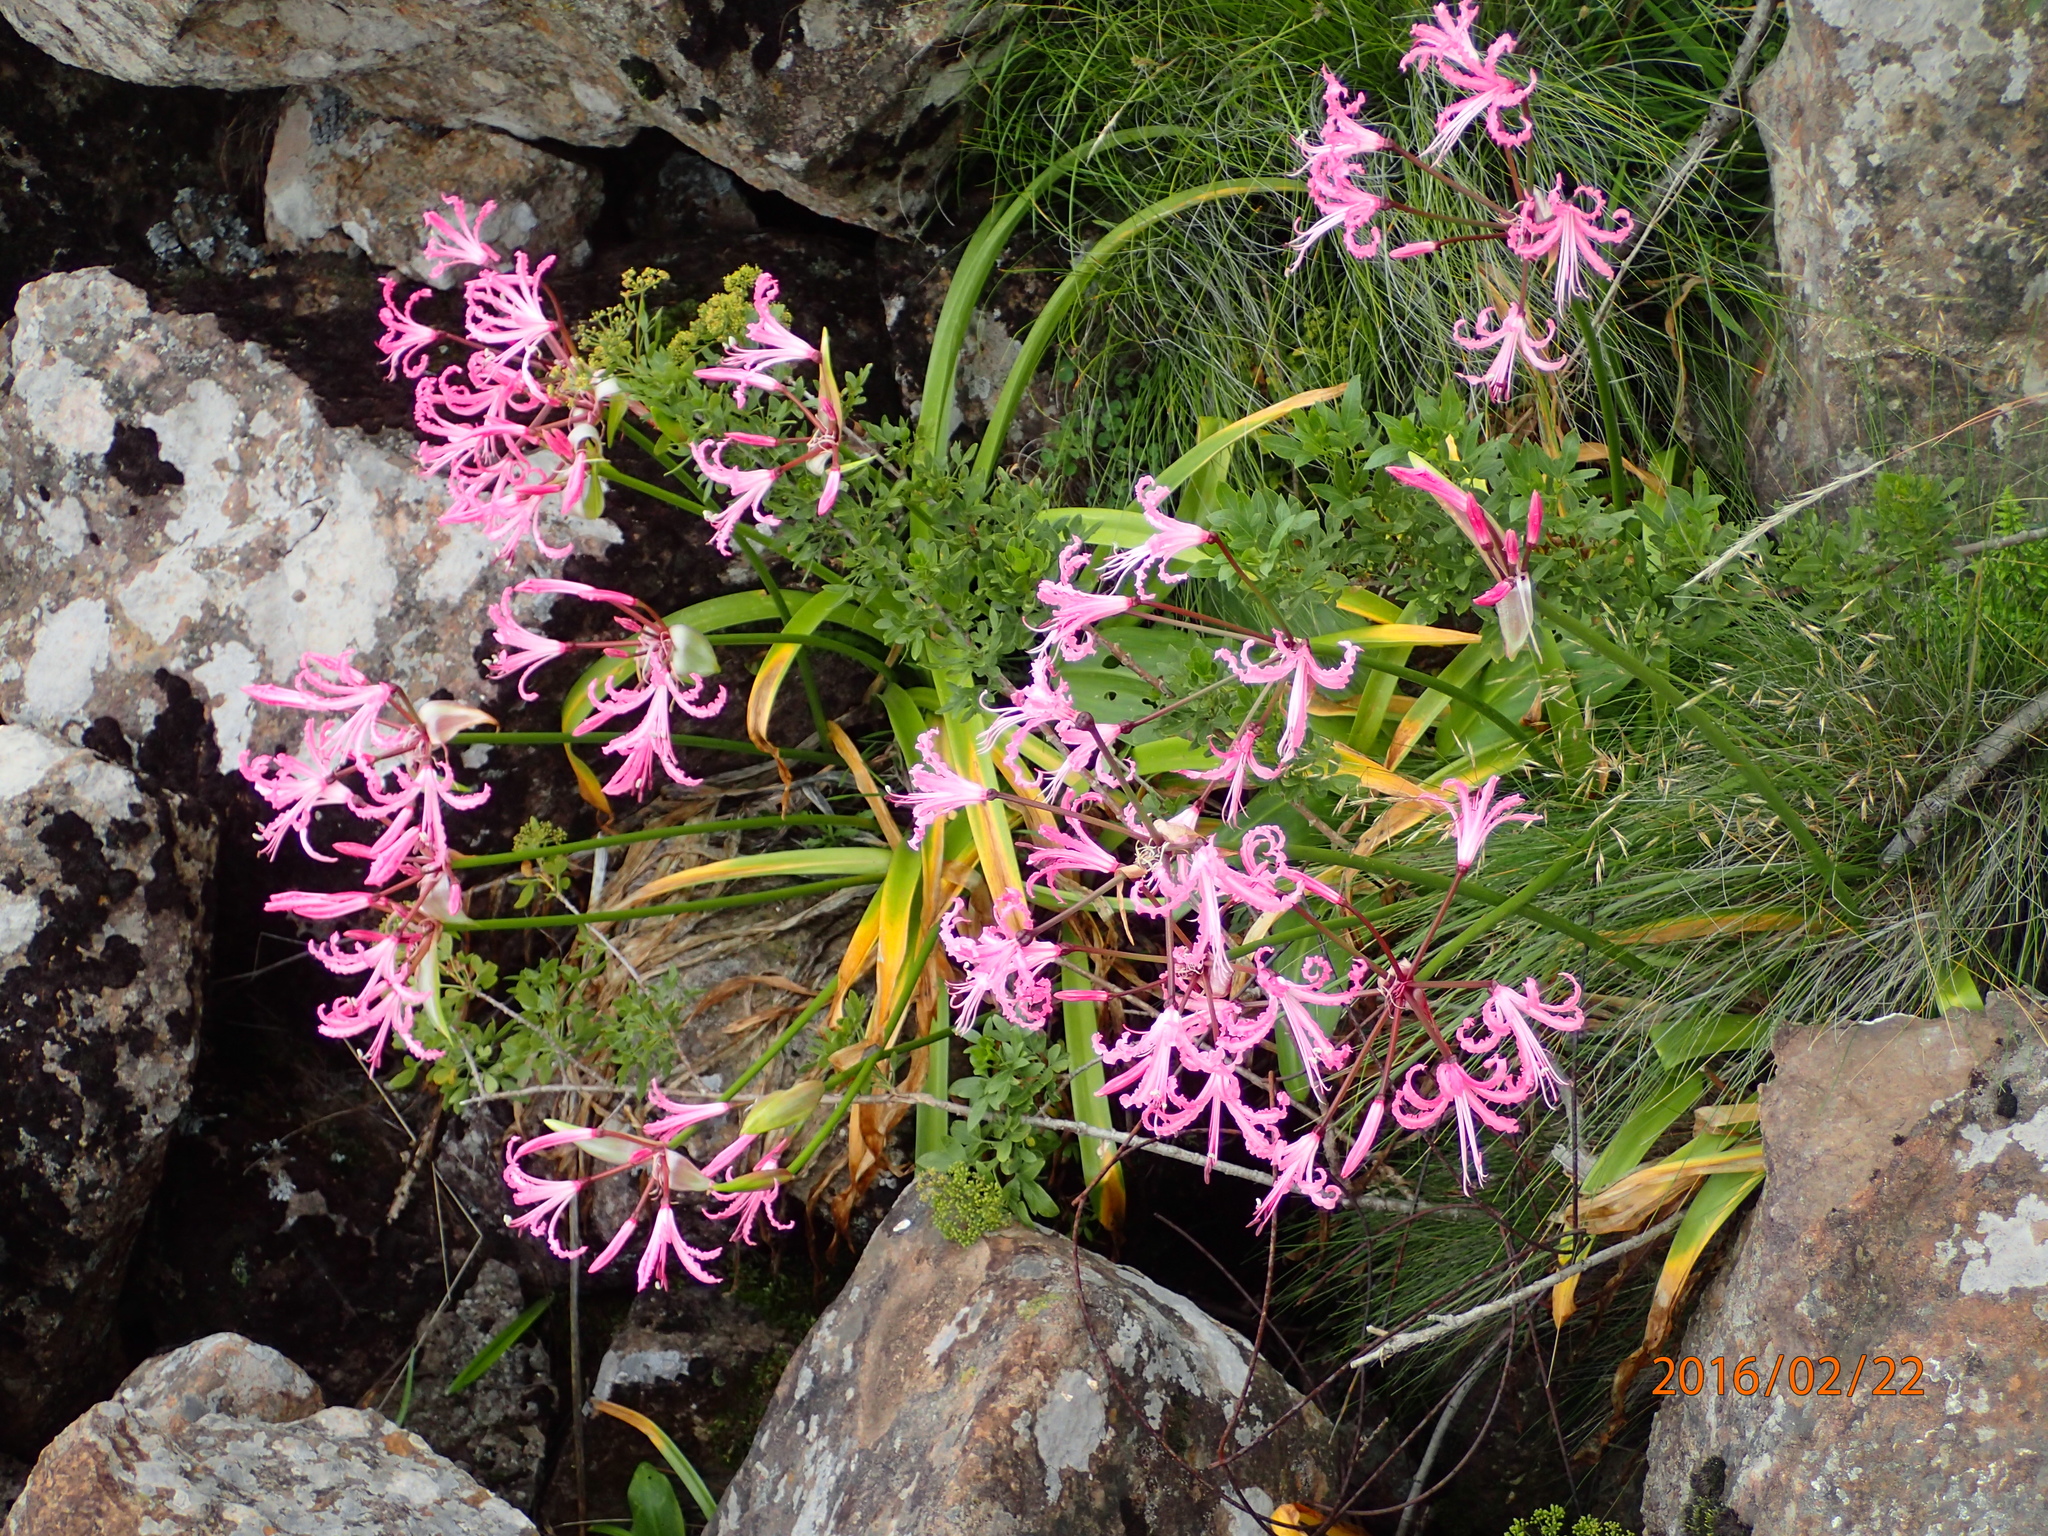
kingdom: Plantae
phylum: Tracheophyta
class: Liliopsida
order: Asparagales
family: Amaryllidaceae
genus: Nerine
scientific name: Nerine bowdenii
